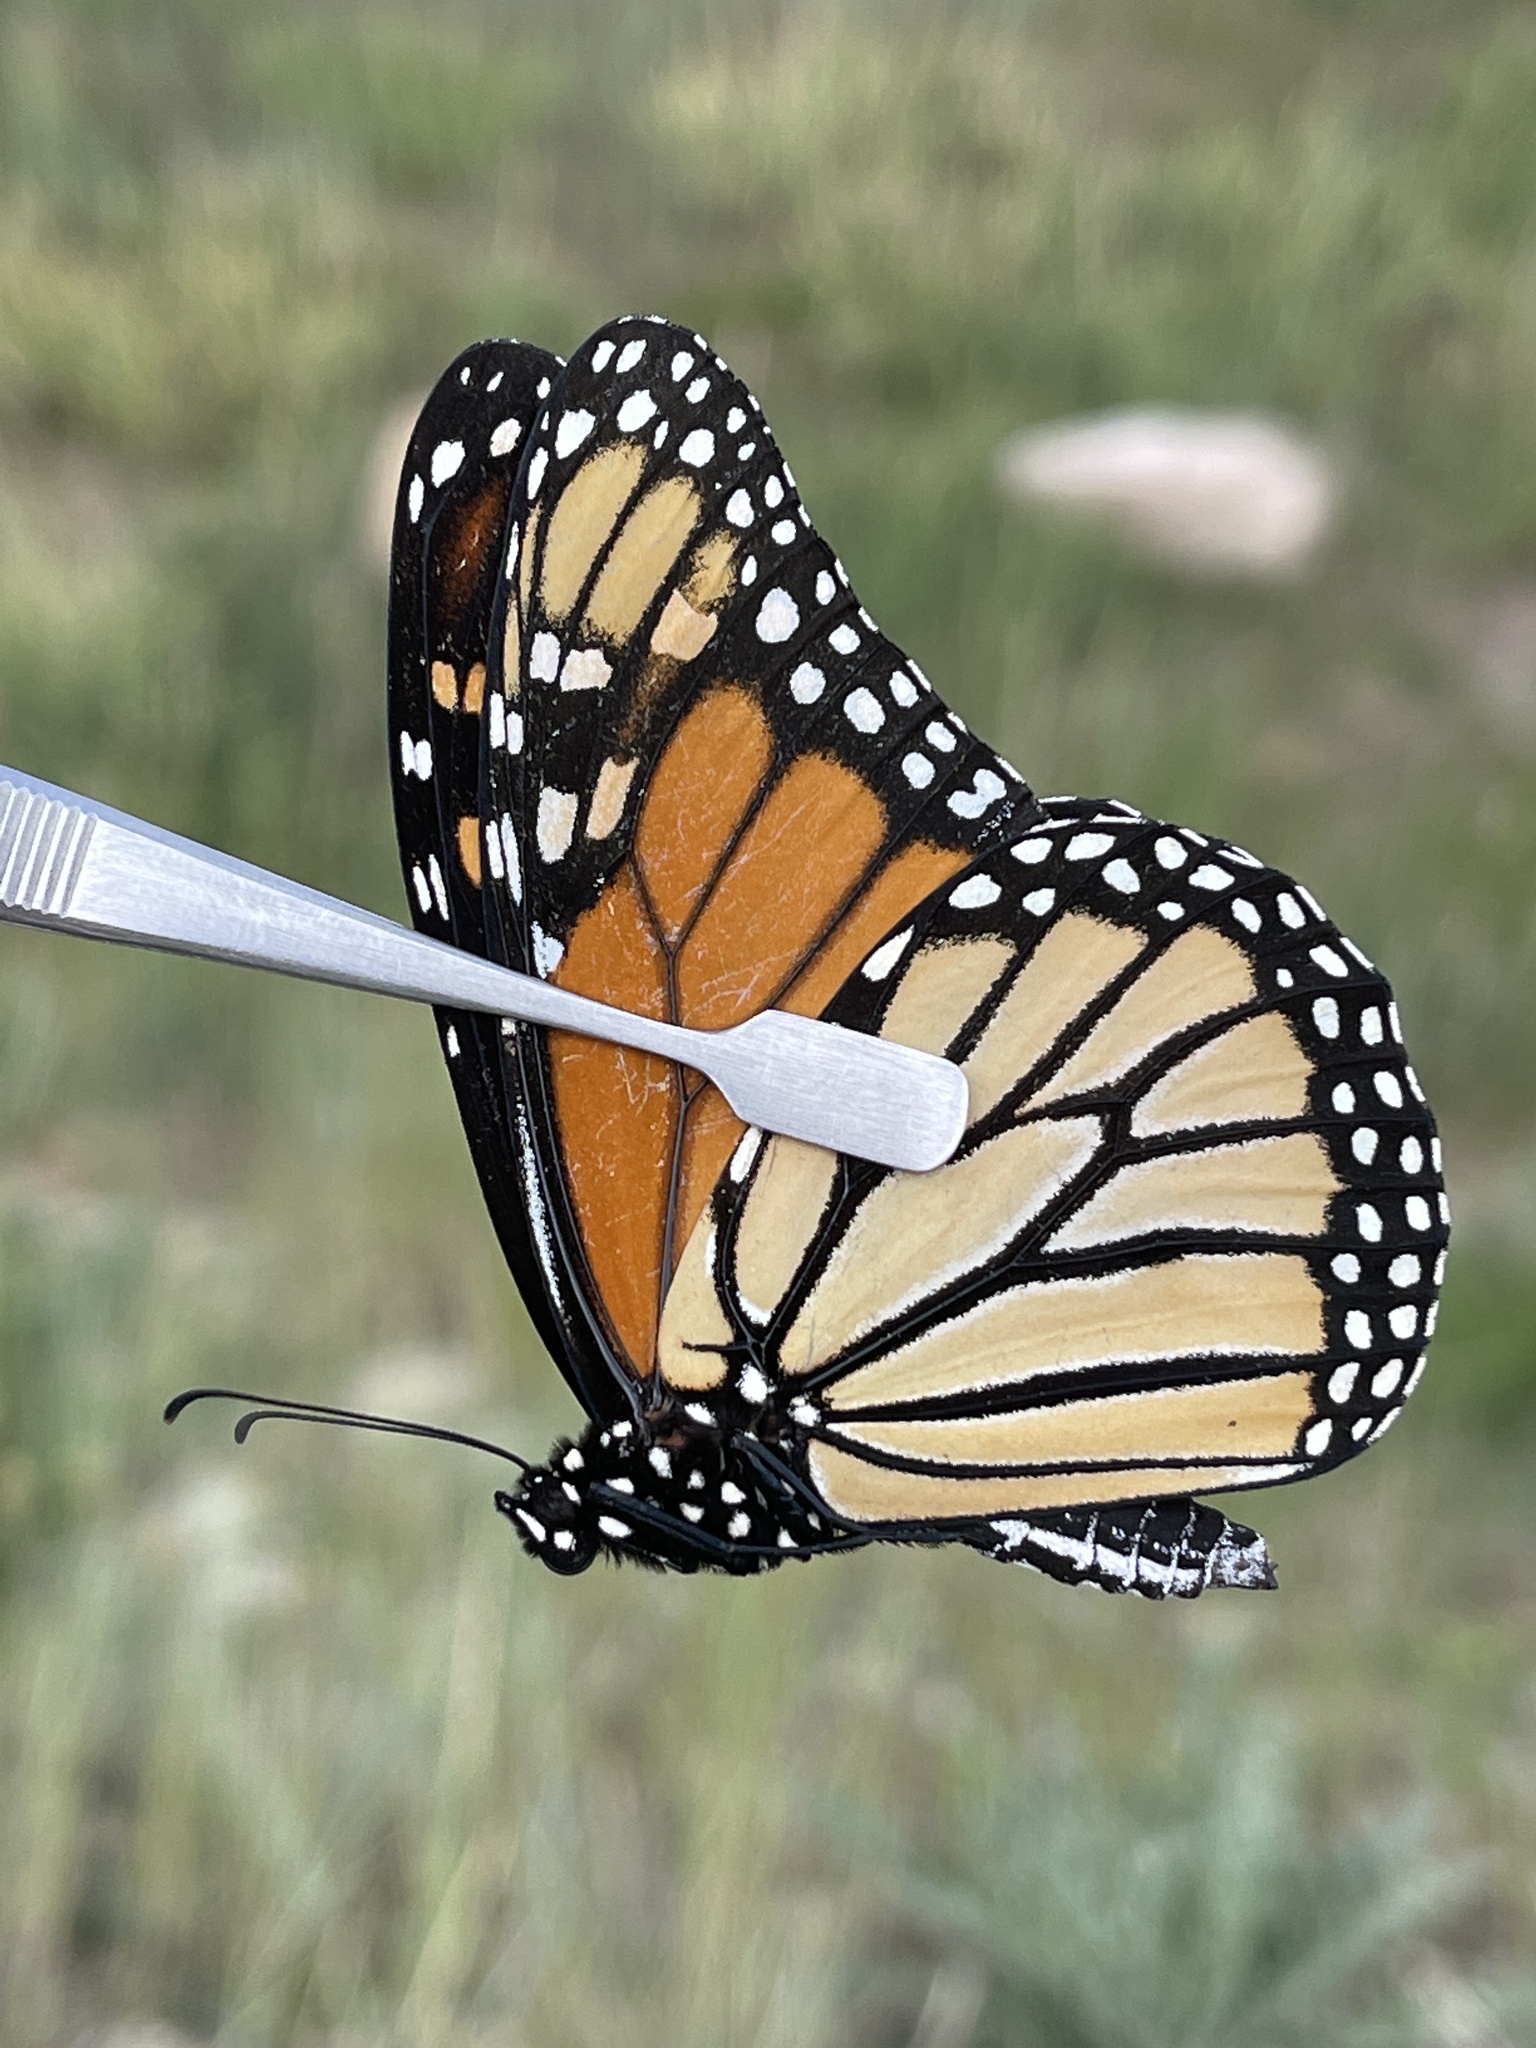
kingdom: Animalia
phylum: Arthropoda
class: Insecta
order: Lepidoptera
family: Nymphalidae
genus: Danaus
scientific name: Danaus plexippus
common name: Monarch
